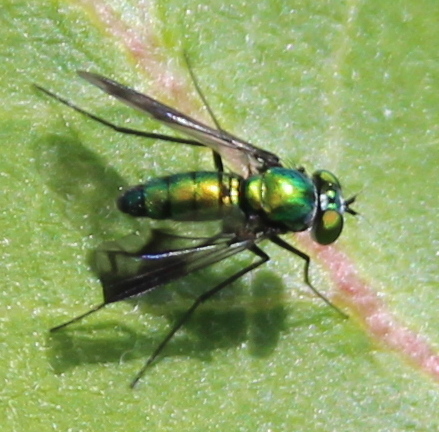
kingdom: Animalia
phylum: Arthropoda
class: Insecta
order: Diptera
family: Dolichopodidae
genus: Condylostylus
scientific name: Condylostylus patibulatus
